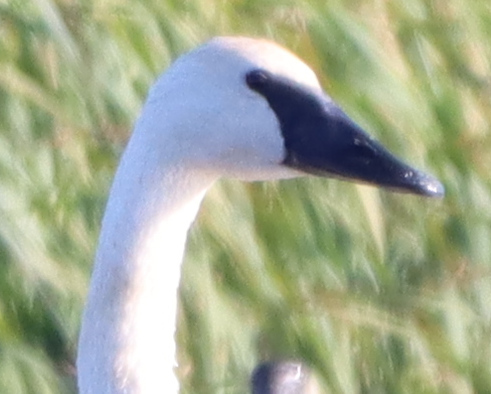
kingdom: Animalia
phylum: Chordata
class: Aves
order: Anseriformes
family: Anatidae
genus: Cygnus
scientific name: Cygnus buccinator
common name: Trumpeter swan
